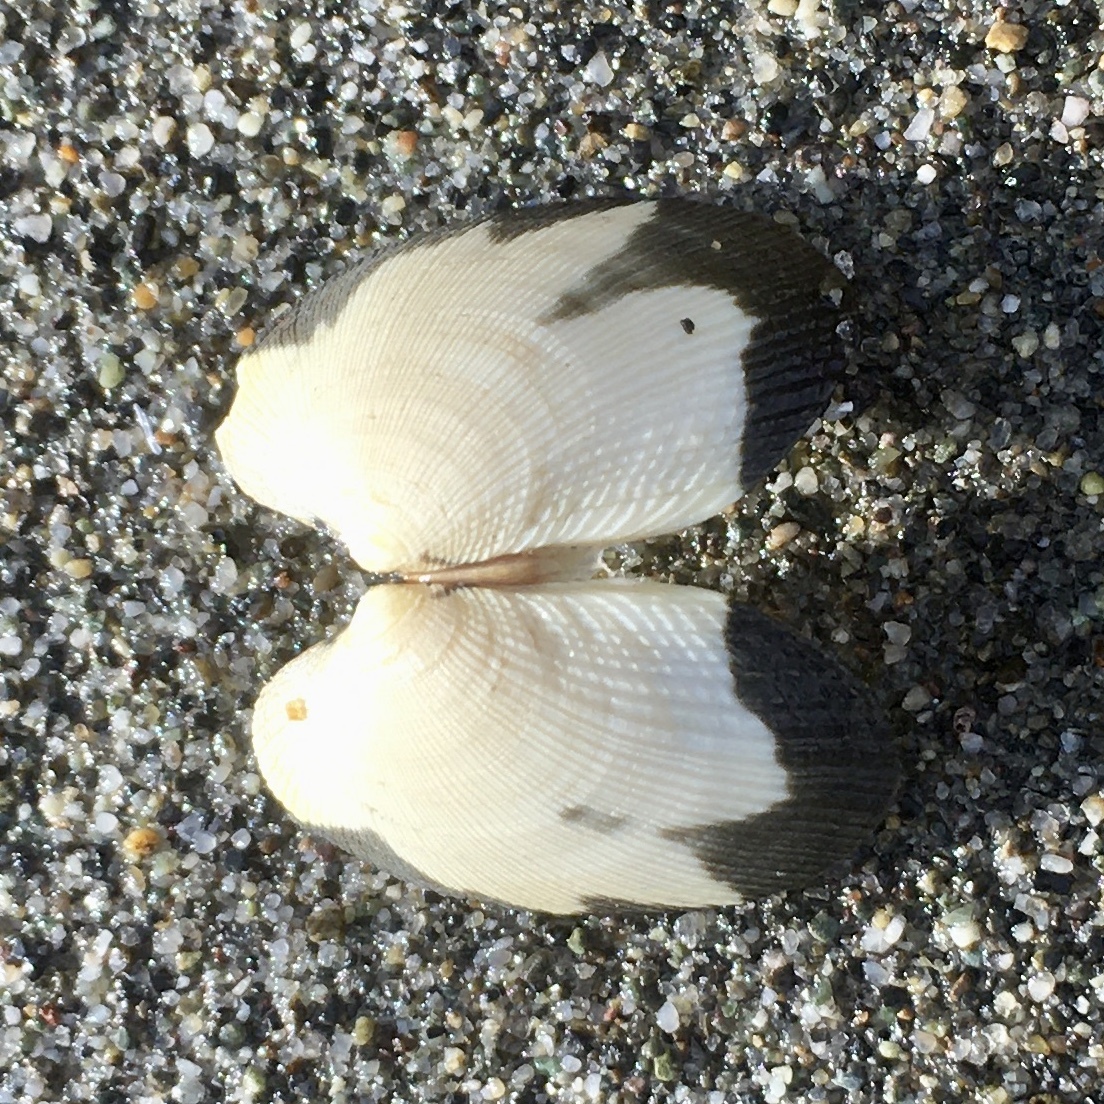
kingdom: Animalia
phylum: Mollusca
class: Bivalvia
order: Venerida
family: Veneridae
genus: Ruditapes
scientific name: Ruditapes philippinarum
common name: Manila clam
